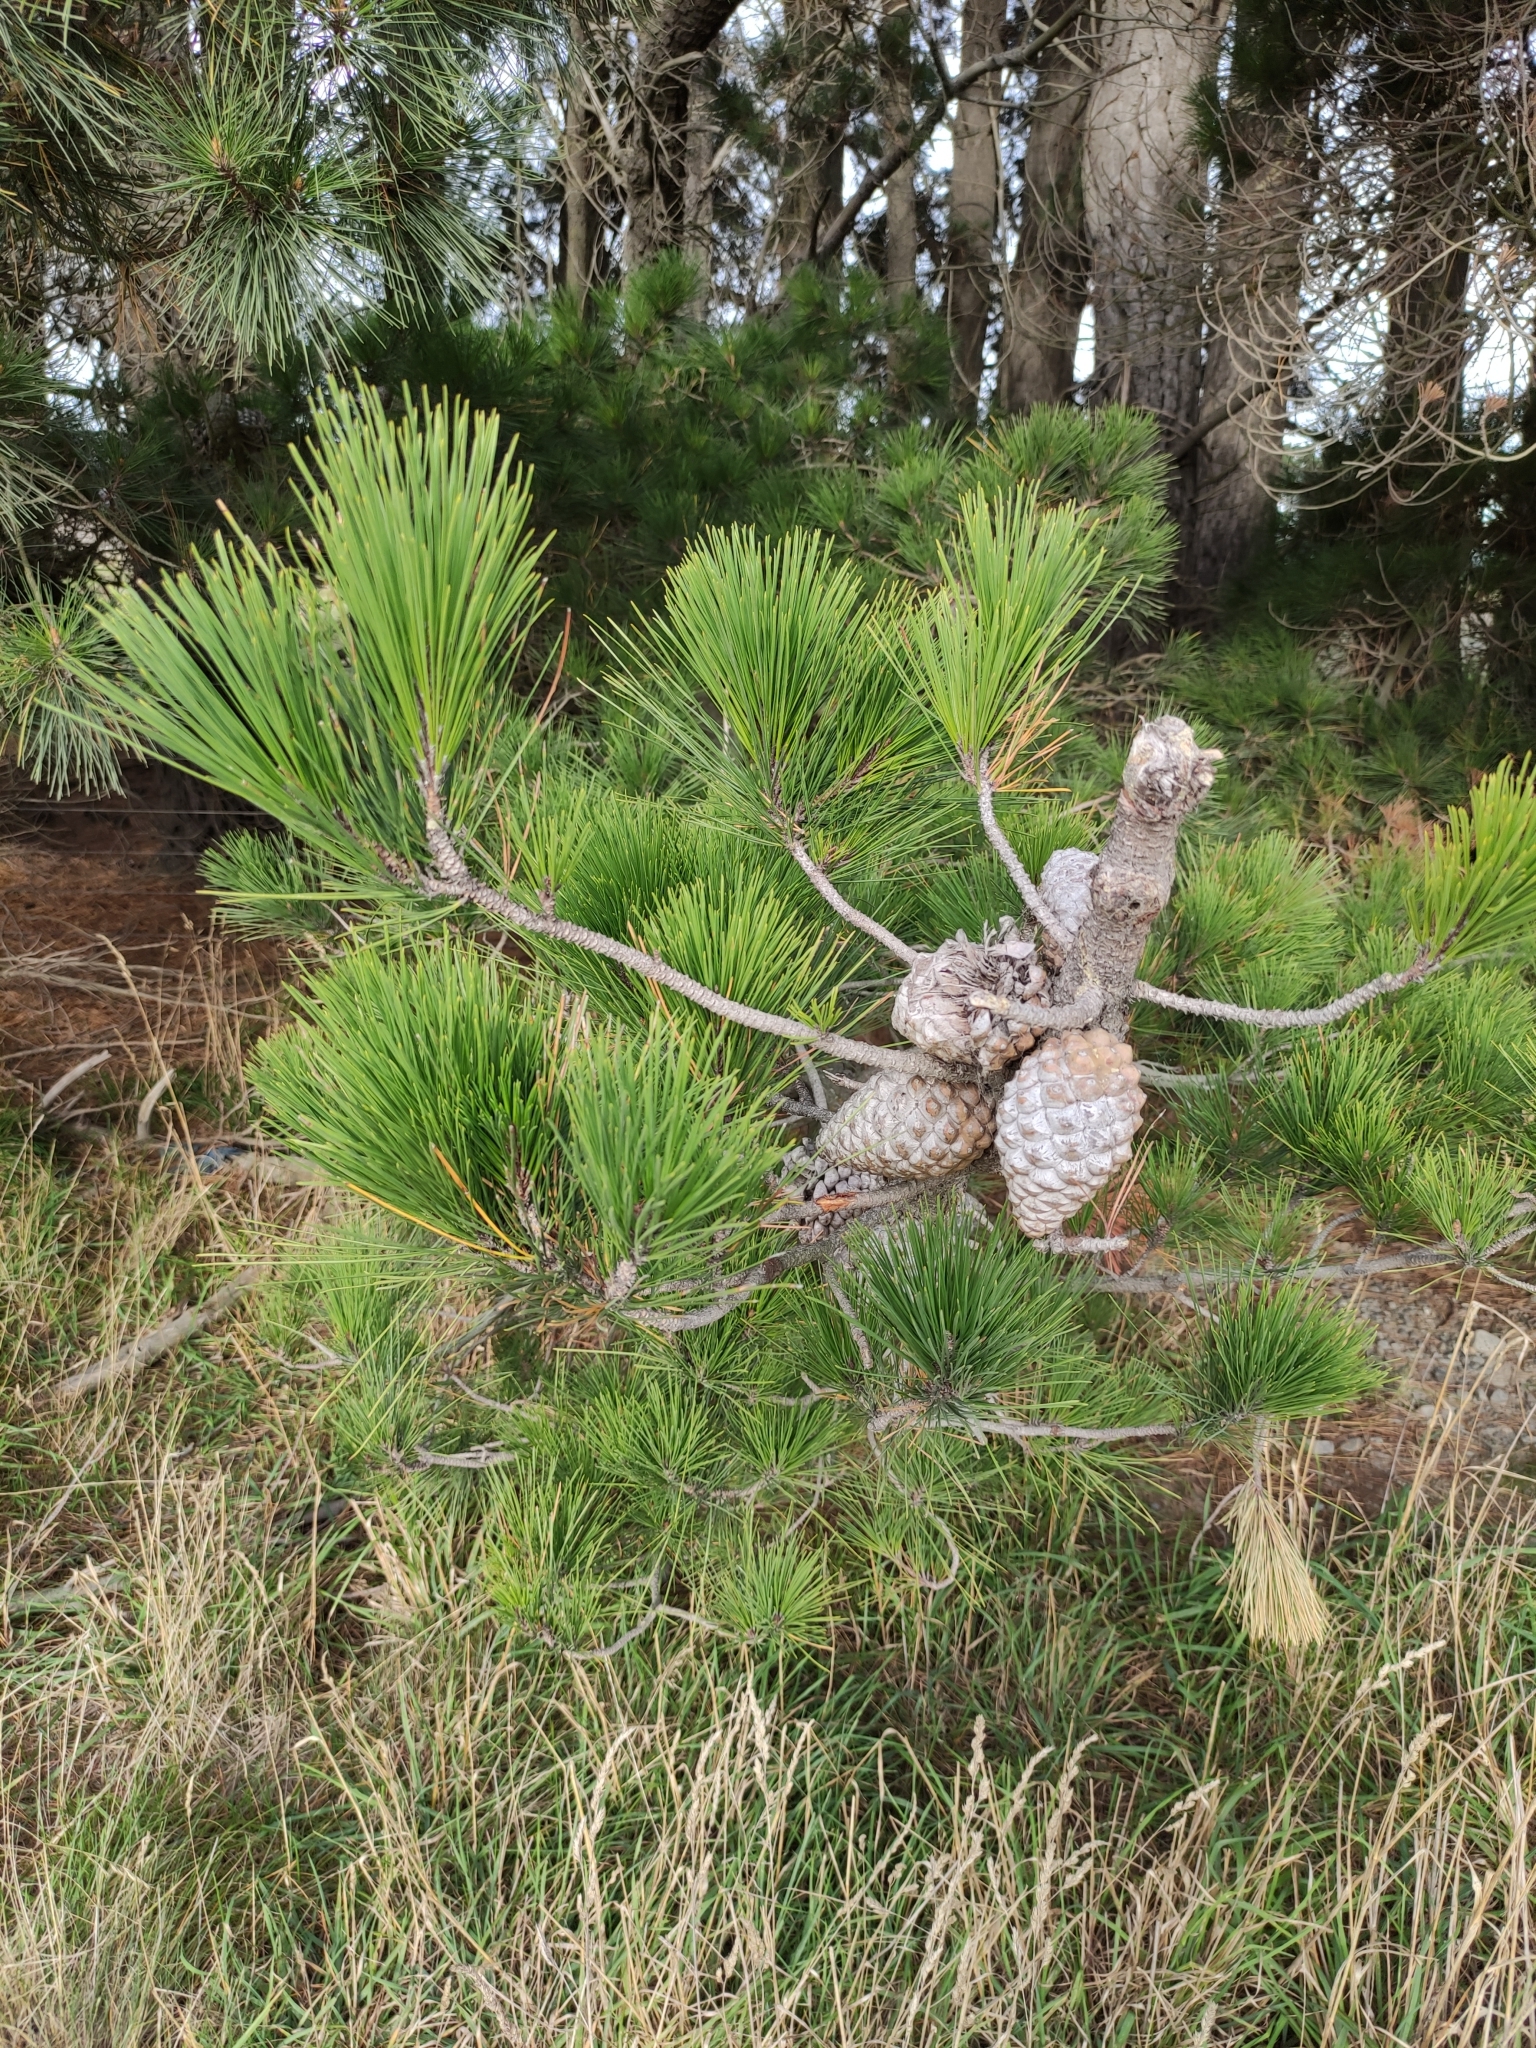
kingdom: Plantae
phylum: Tracheophyta
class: Pinopsida
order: Pinales
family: Pinaceae
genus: Pinus
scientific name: Pinus radiata
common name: Monterey pine
